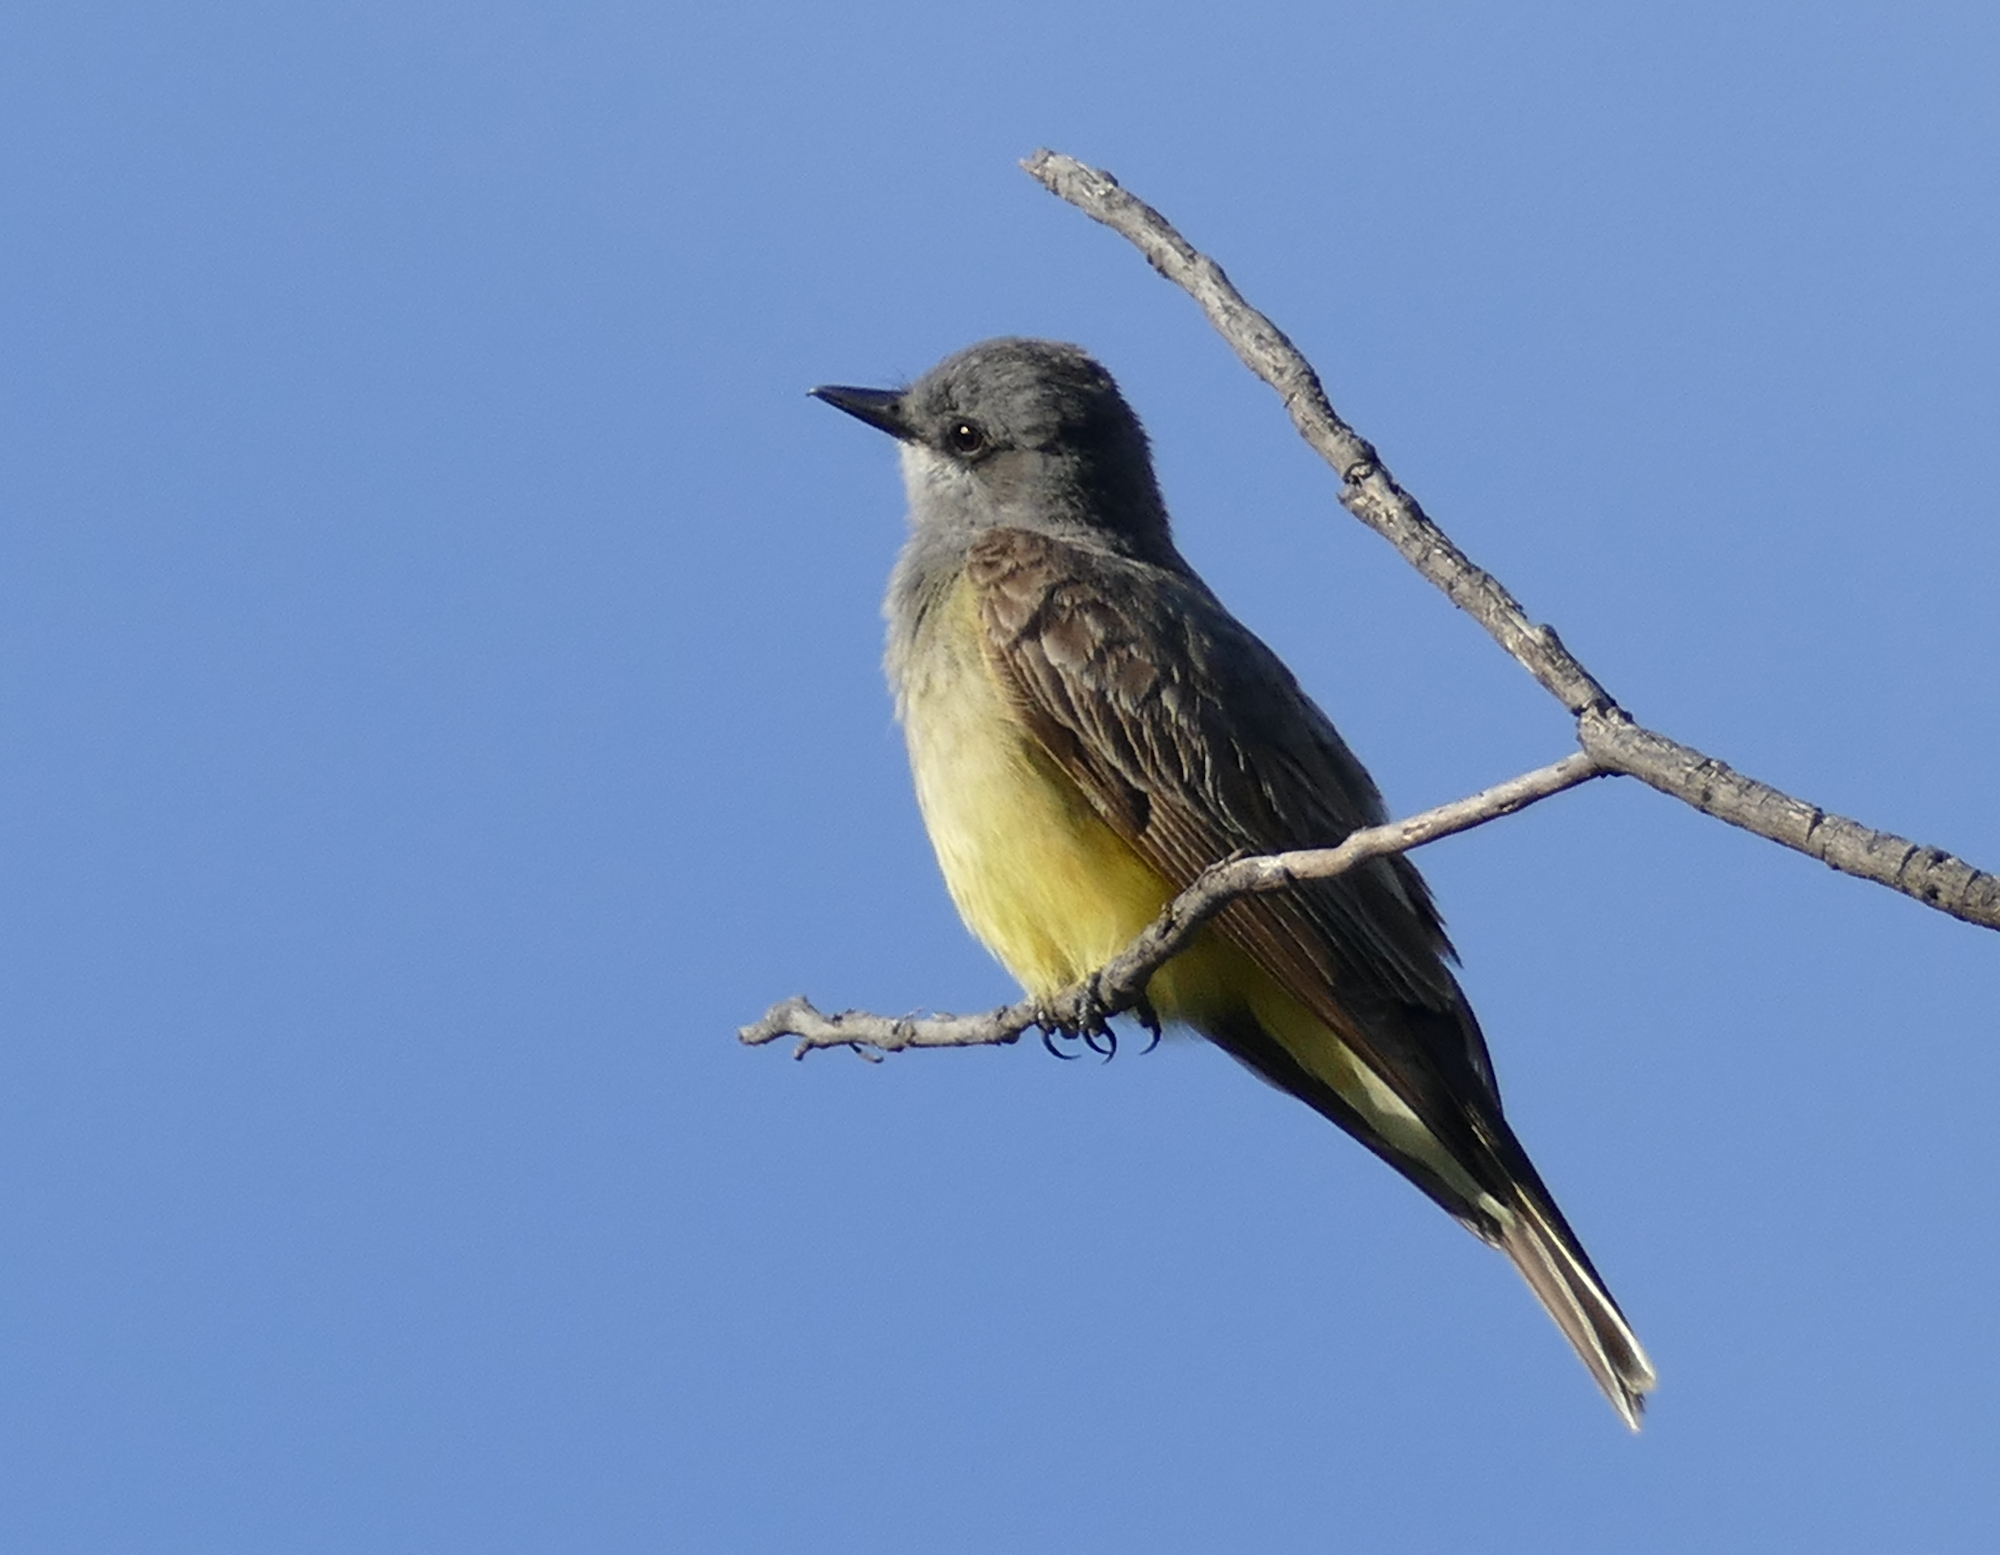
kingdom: Animalia
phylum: Chordata
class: Aves
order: Passeriformes
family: Tyrannidae
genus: Tyrannus
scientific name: Tyrannus vociferans
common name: Cassin's kingbird
